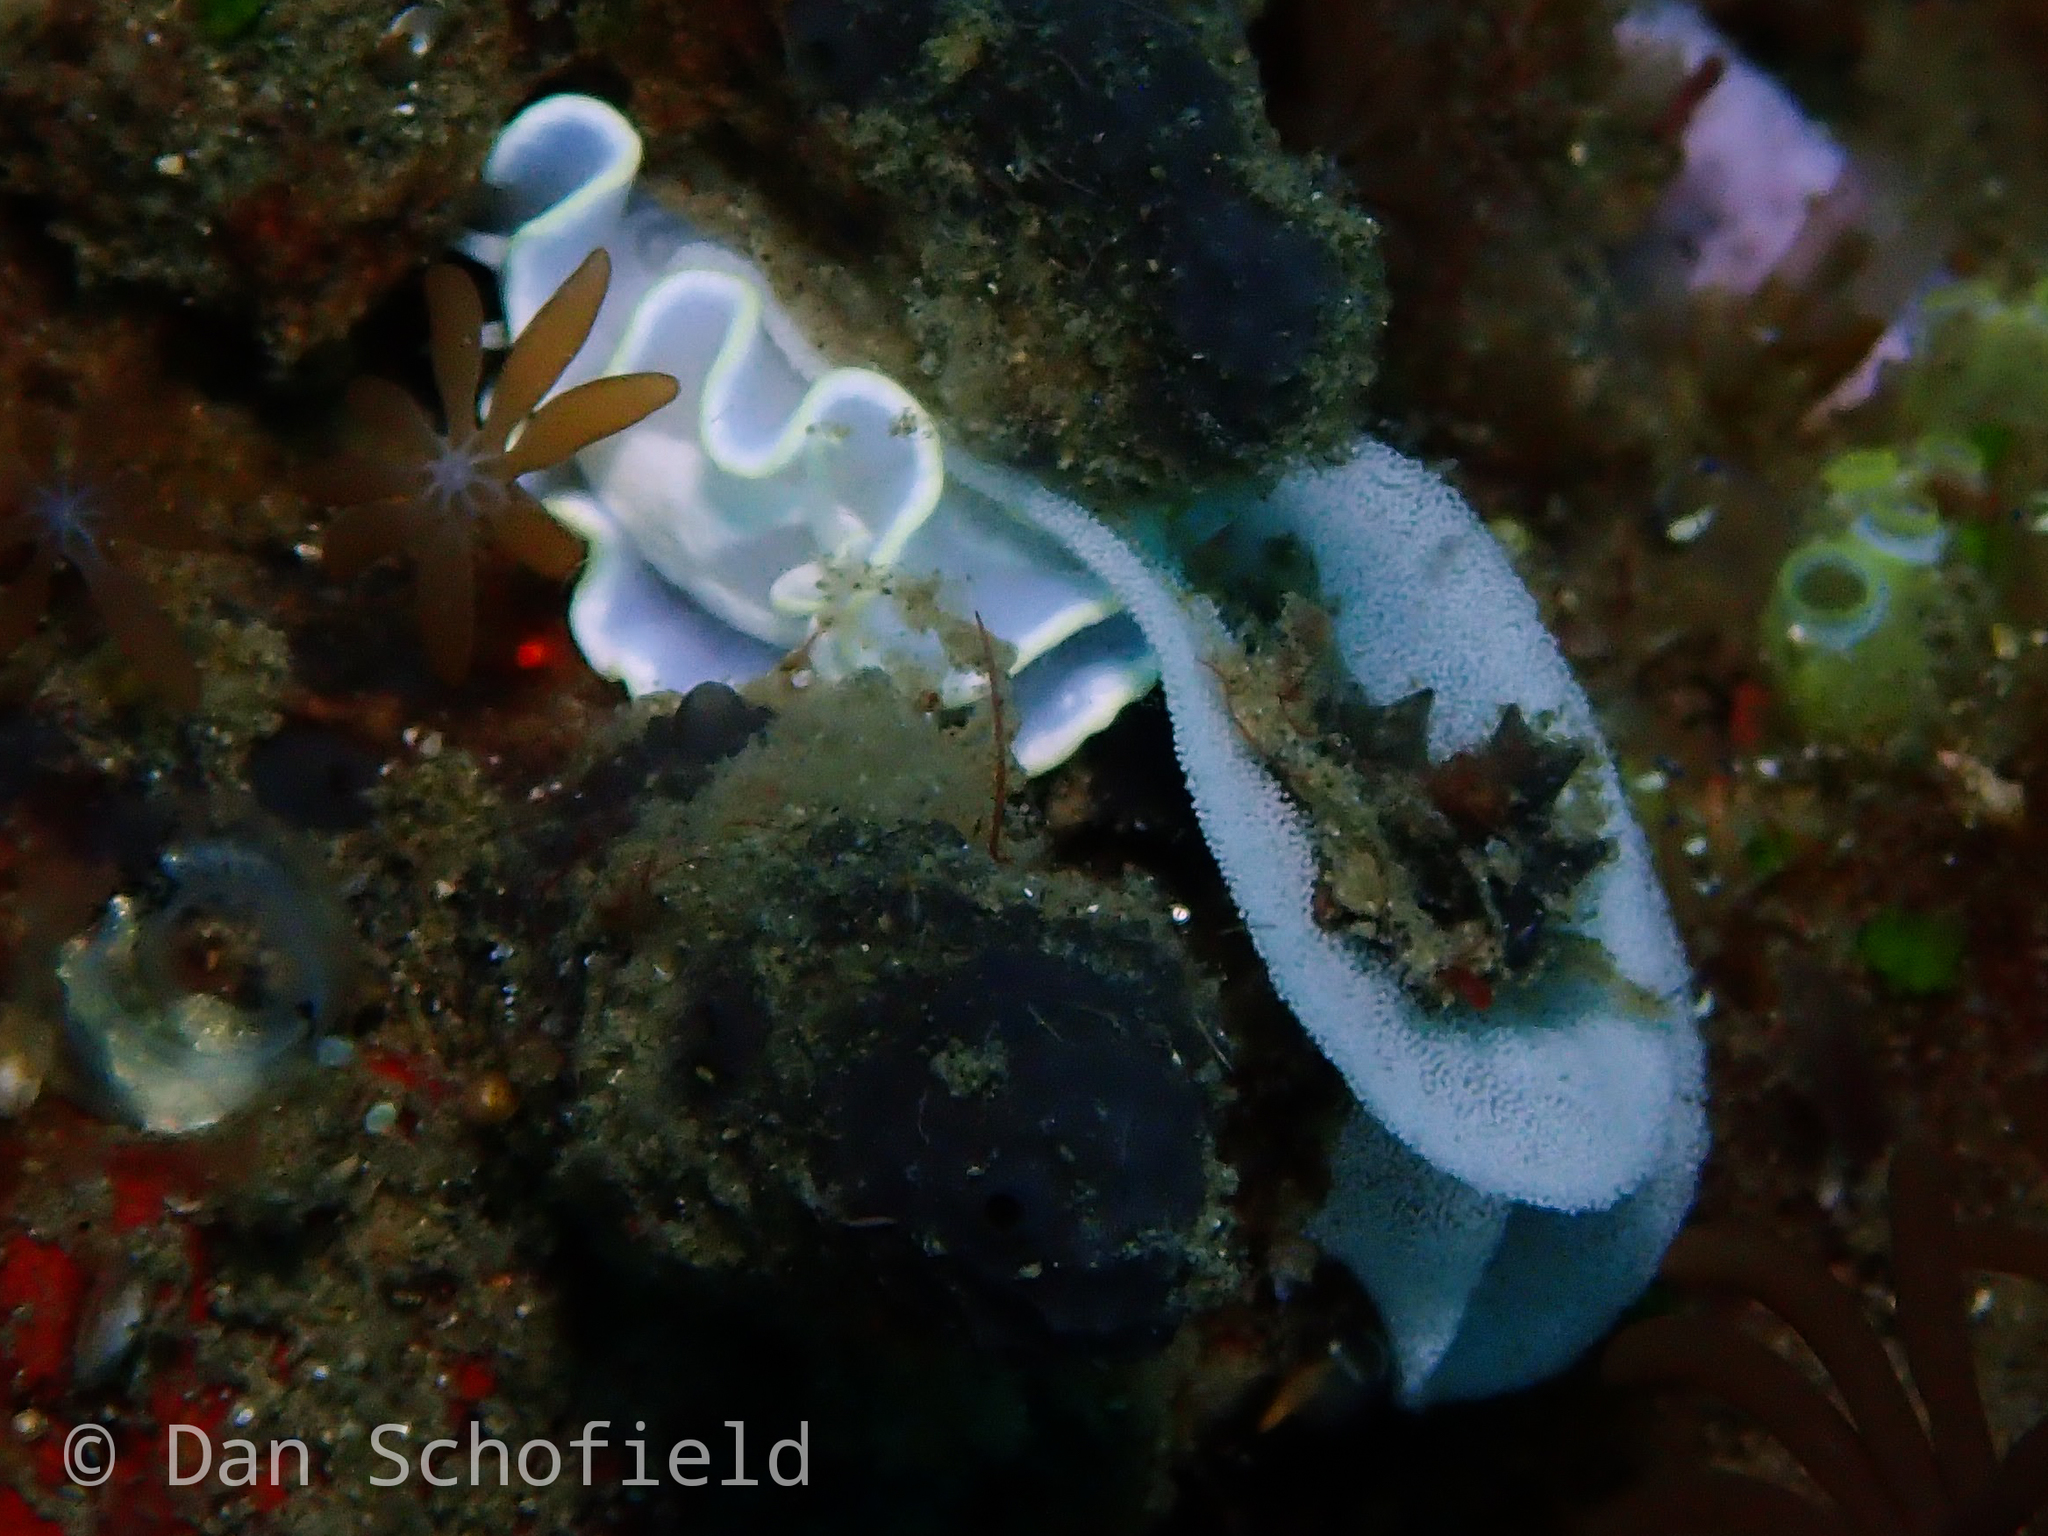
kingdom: Animalia
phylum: Mollusca
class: Gastropoda
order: Nudibranchia
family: Chromodorididae
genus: Glossodoris
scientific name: Glossodoris buko
